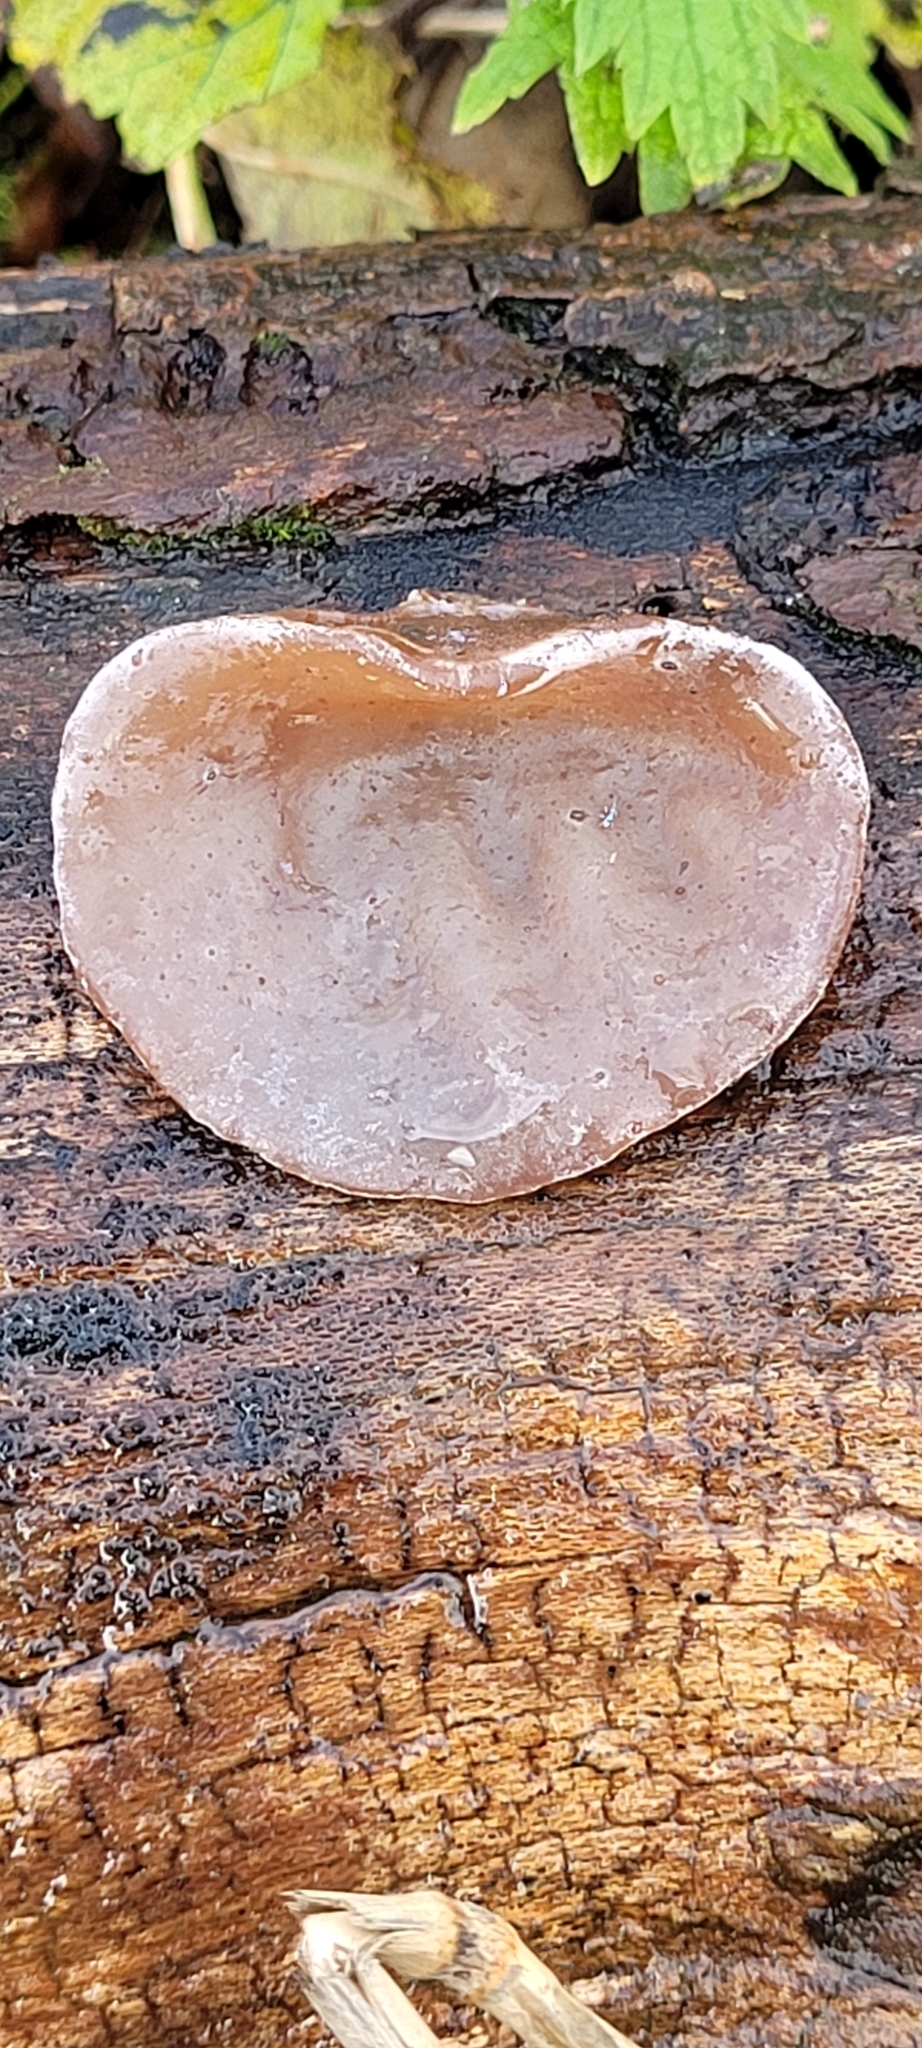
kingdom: Fungi
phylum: Basidiomycota
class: Agaricomycetes
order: Auriculariales
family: Auriculariaceae
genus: Auricularia
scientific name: Auricularia auricula-judae
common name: Jelly ear
